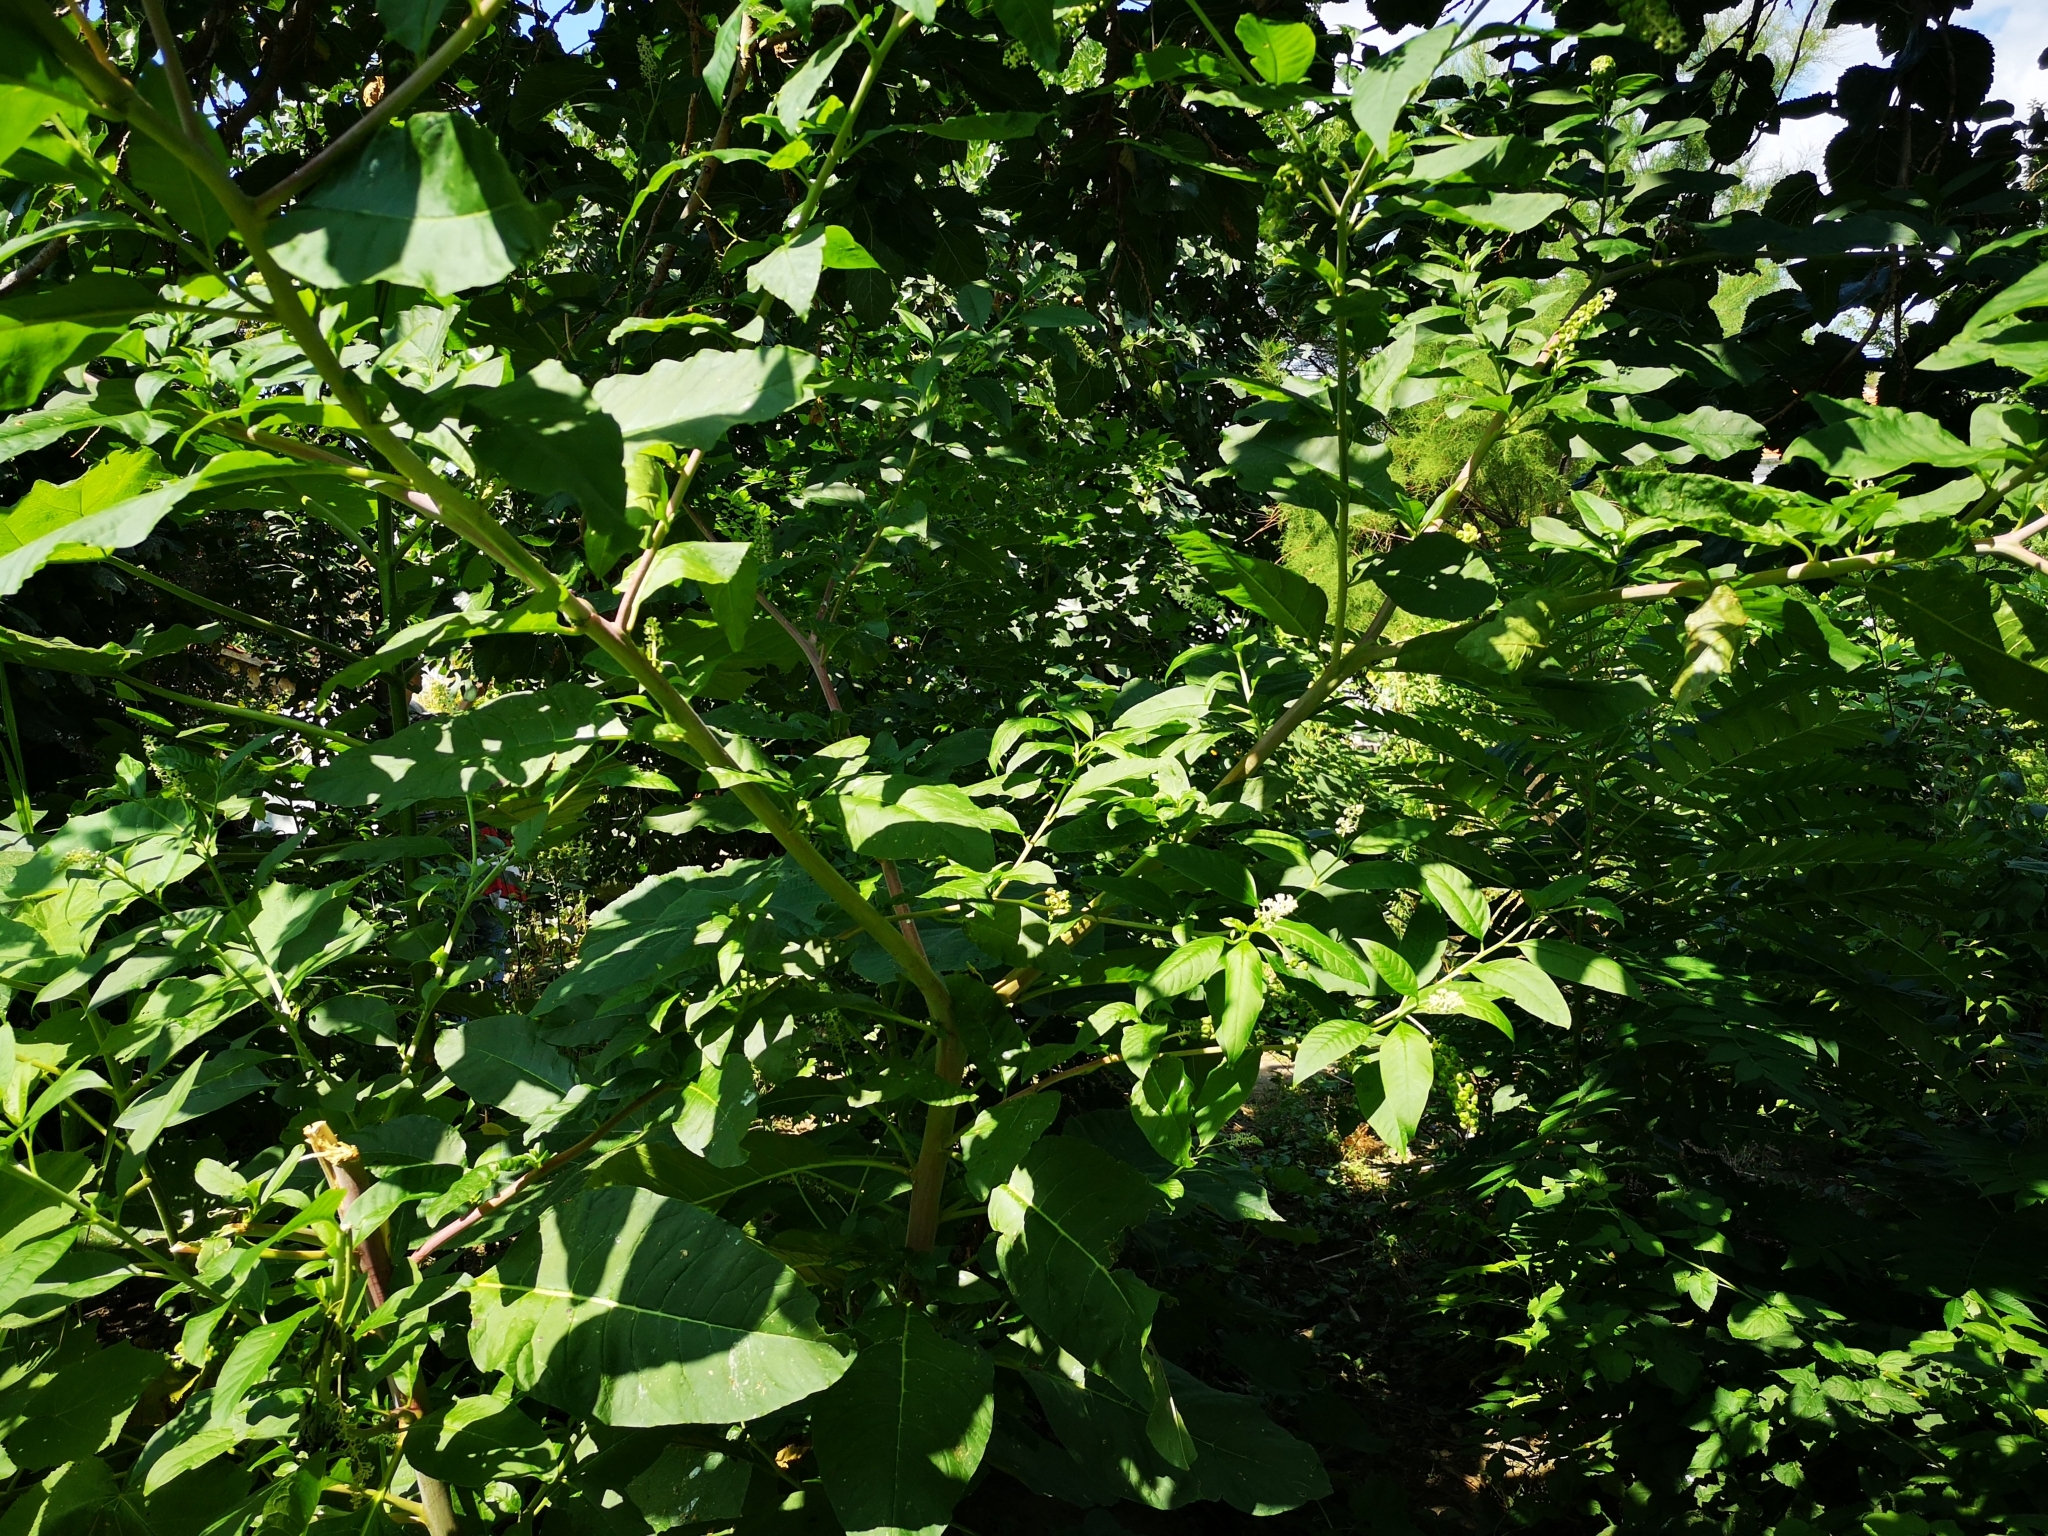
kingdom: Plantae
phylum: Tracheophyta
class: Magnoliopsida
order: Caryophyllales
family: Phytolaccaceae
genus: Phytolacca
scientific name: Phytolacca americana
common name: American pokeweed
